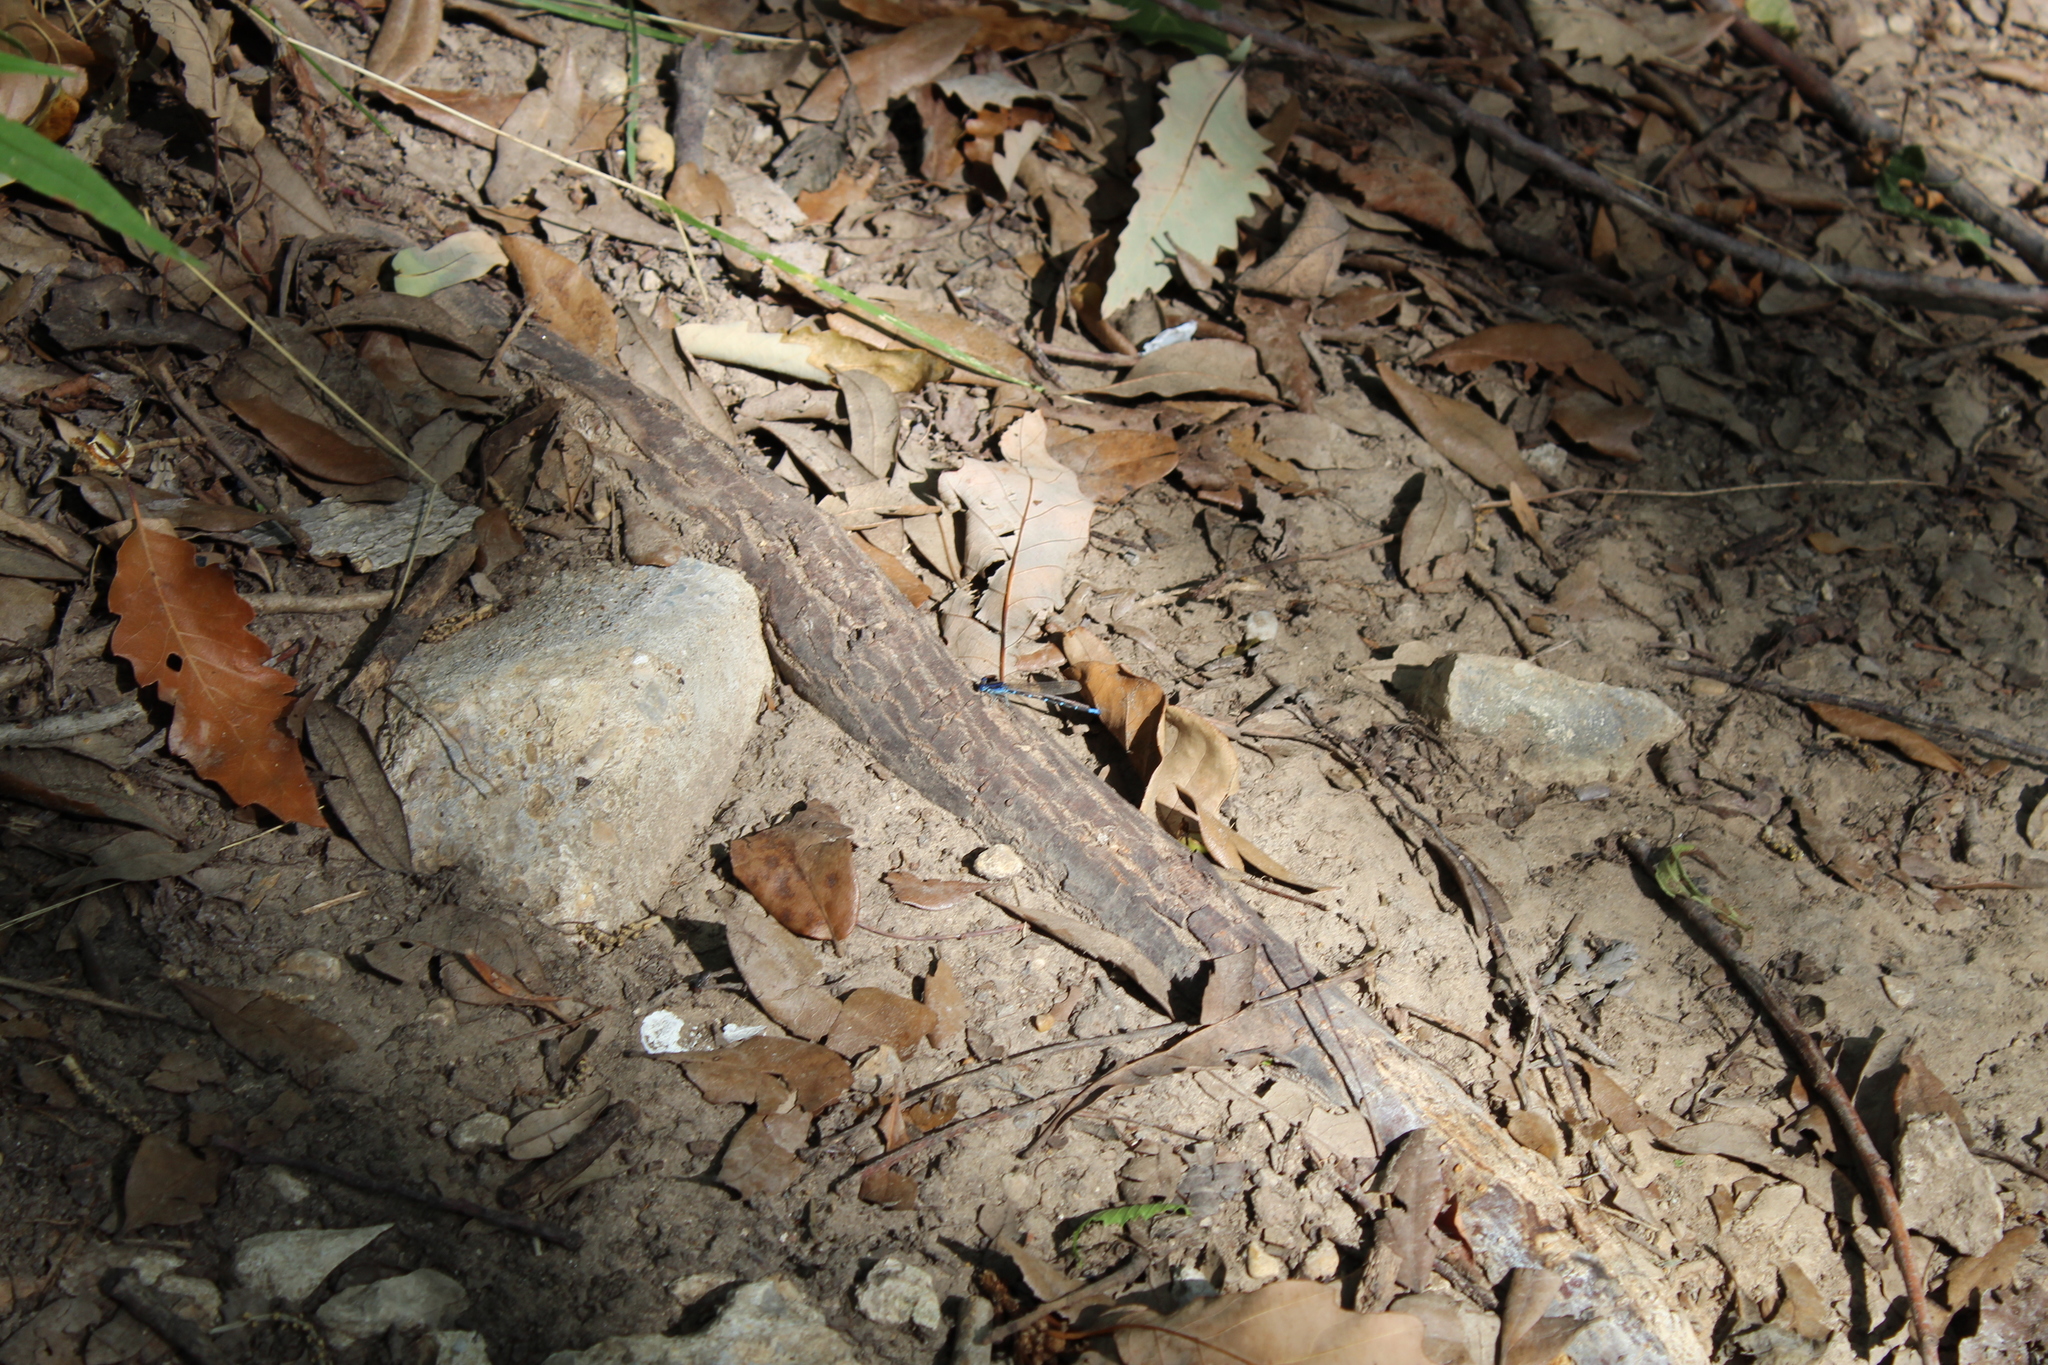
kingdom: Animalia
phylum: Arthropoda
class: Insecta
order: Odonata
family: Coenagrionidae
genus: Argia
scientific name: Argia sedula
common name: Blue-ringed dancer
